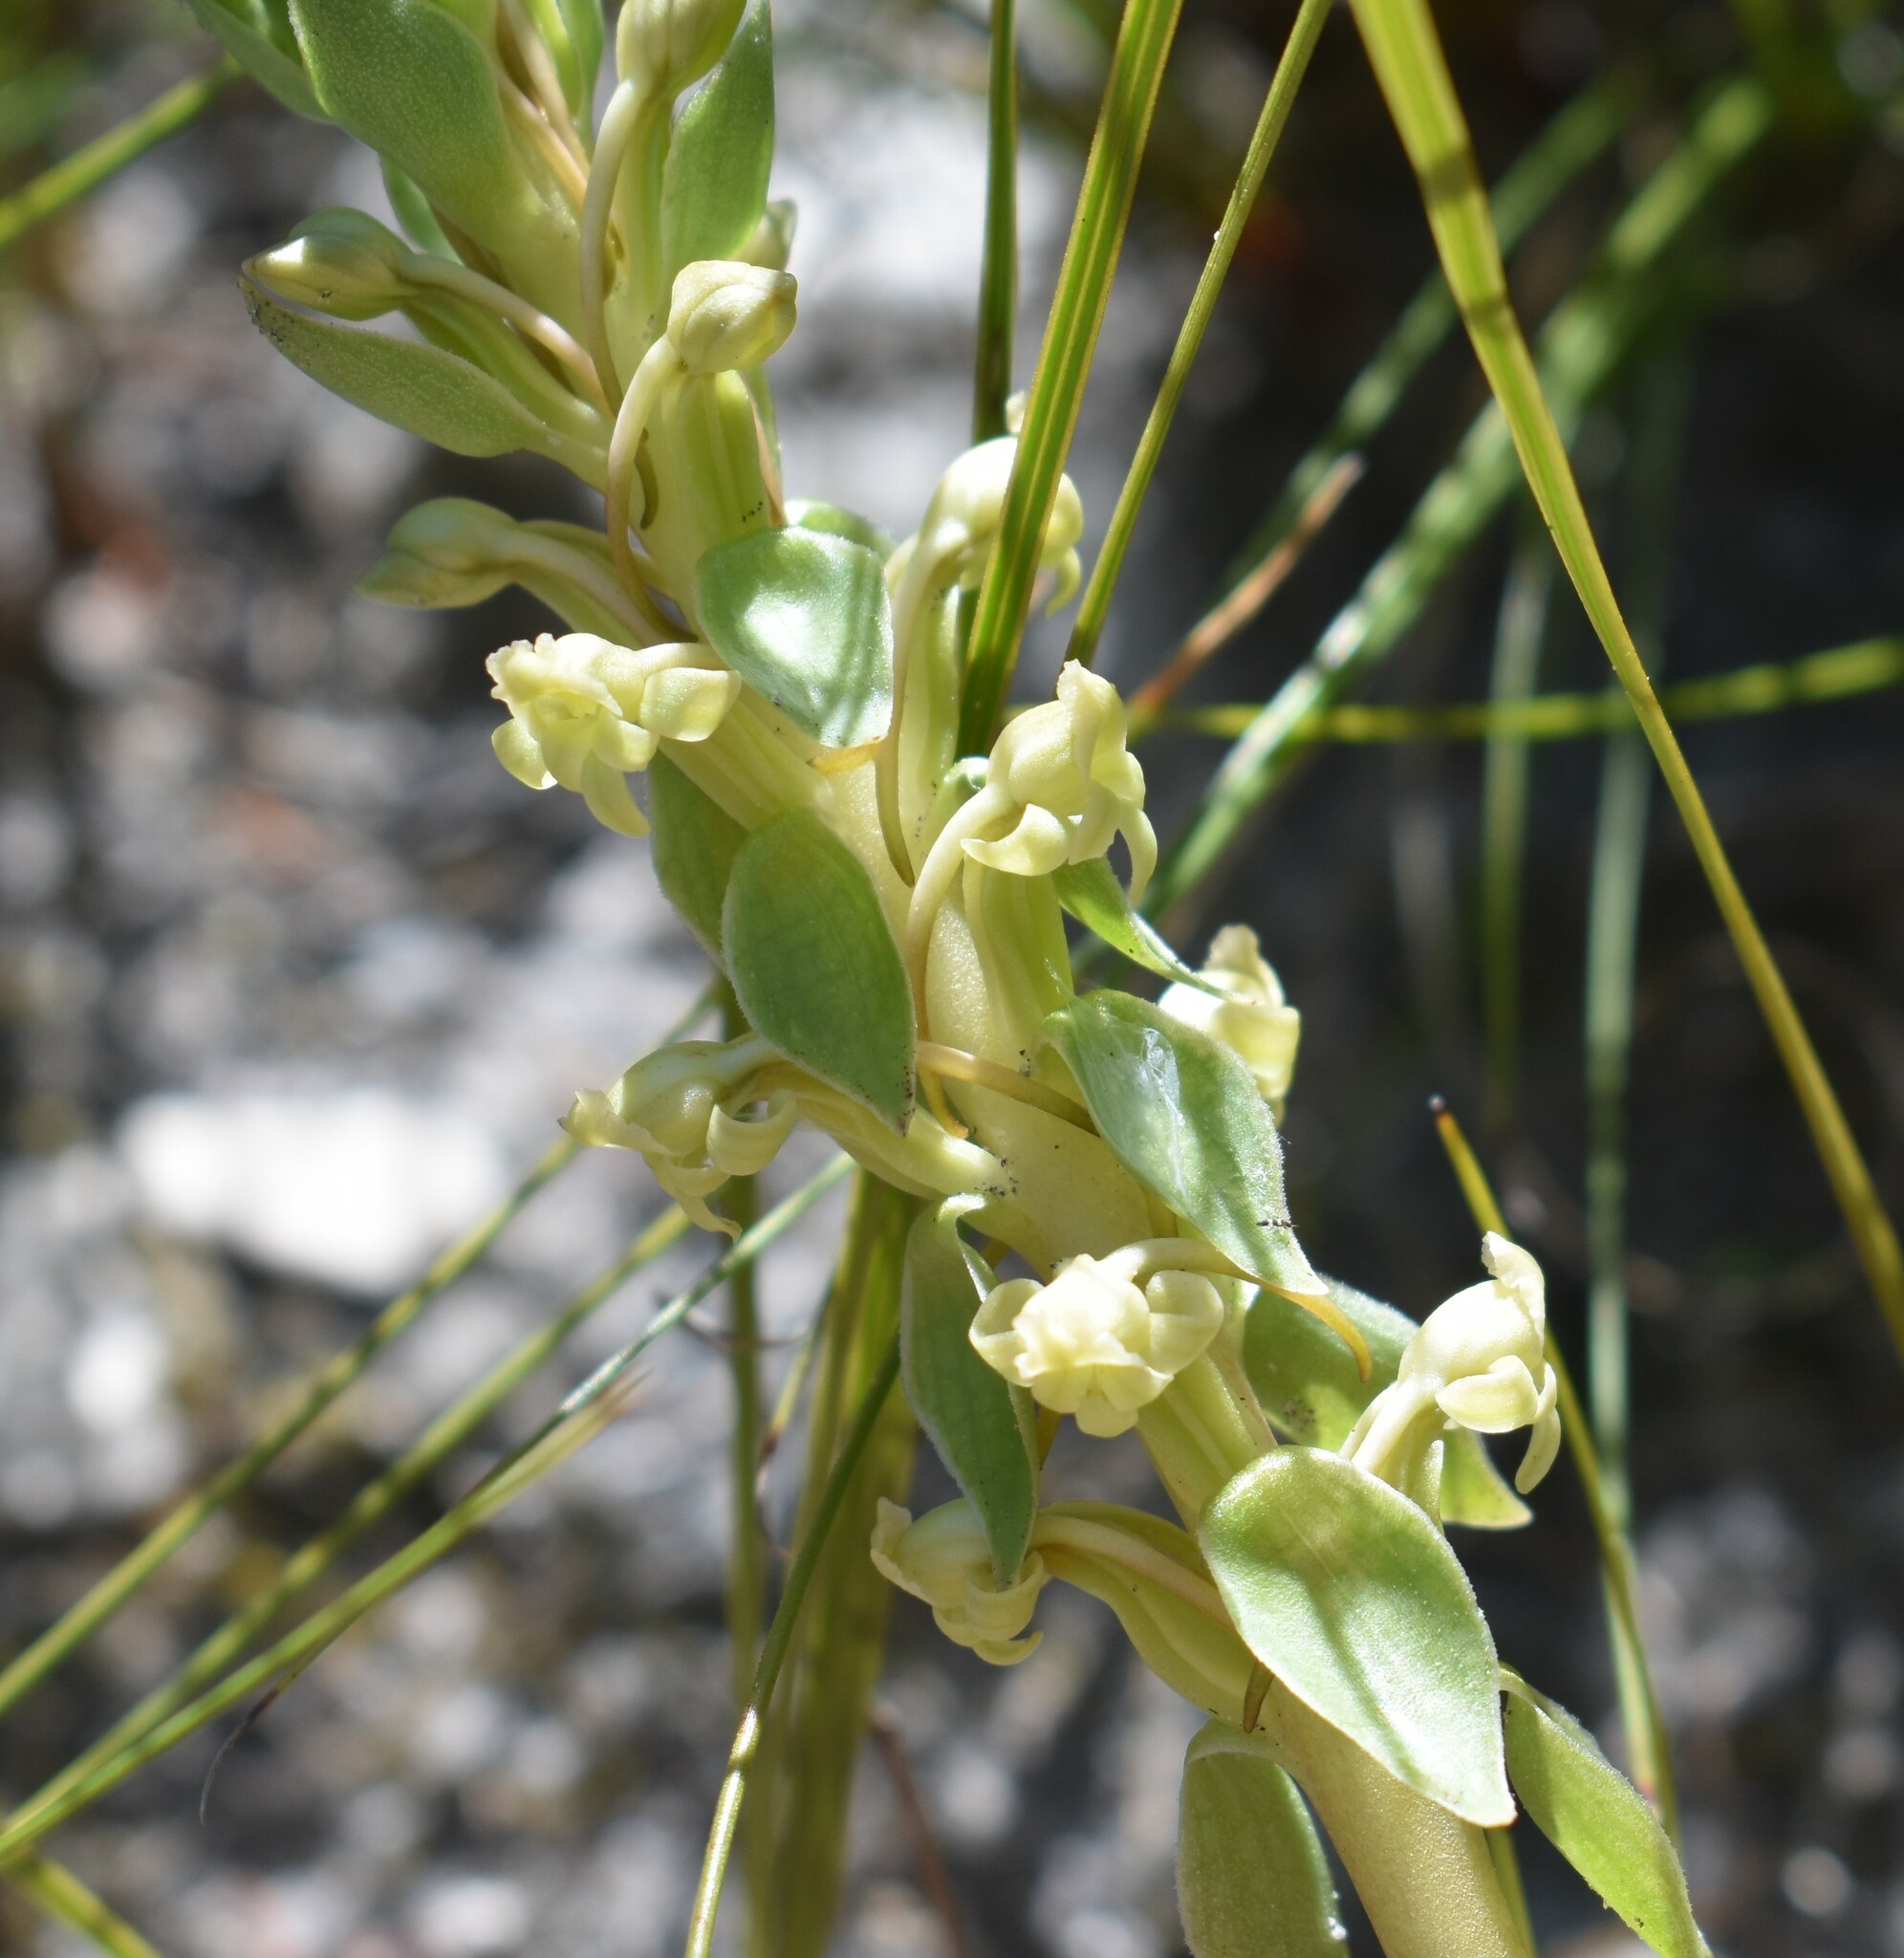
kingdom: Plantae
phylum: Tracheophyta
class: Liliopsida
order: Asparagales
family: Orchidaceae
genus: Satyrium
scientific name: Satyrium humile
